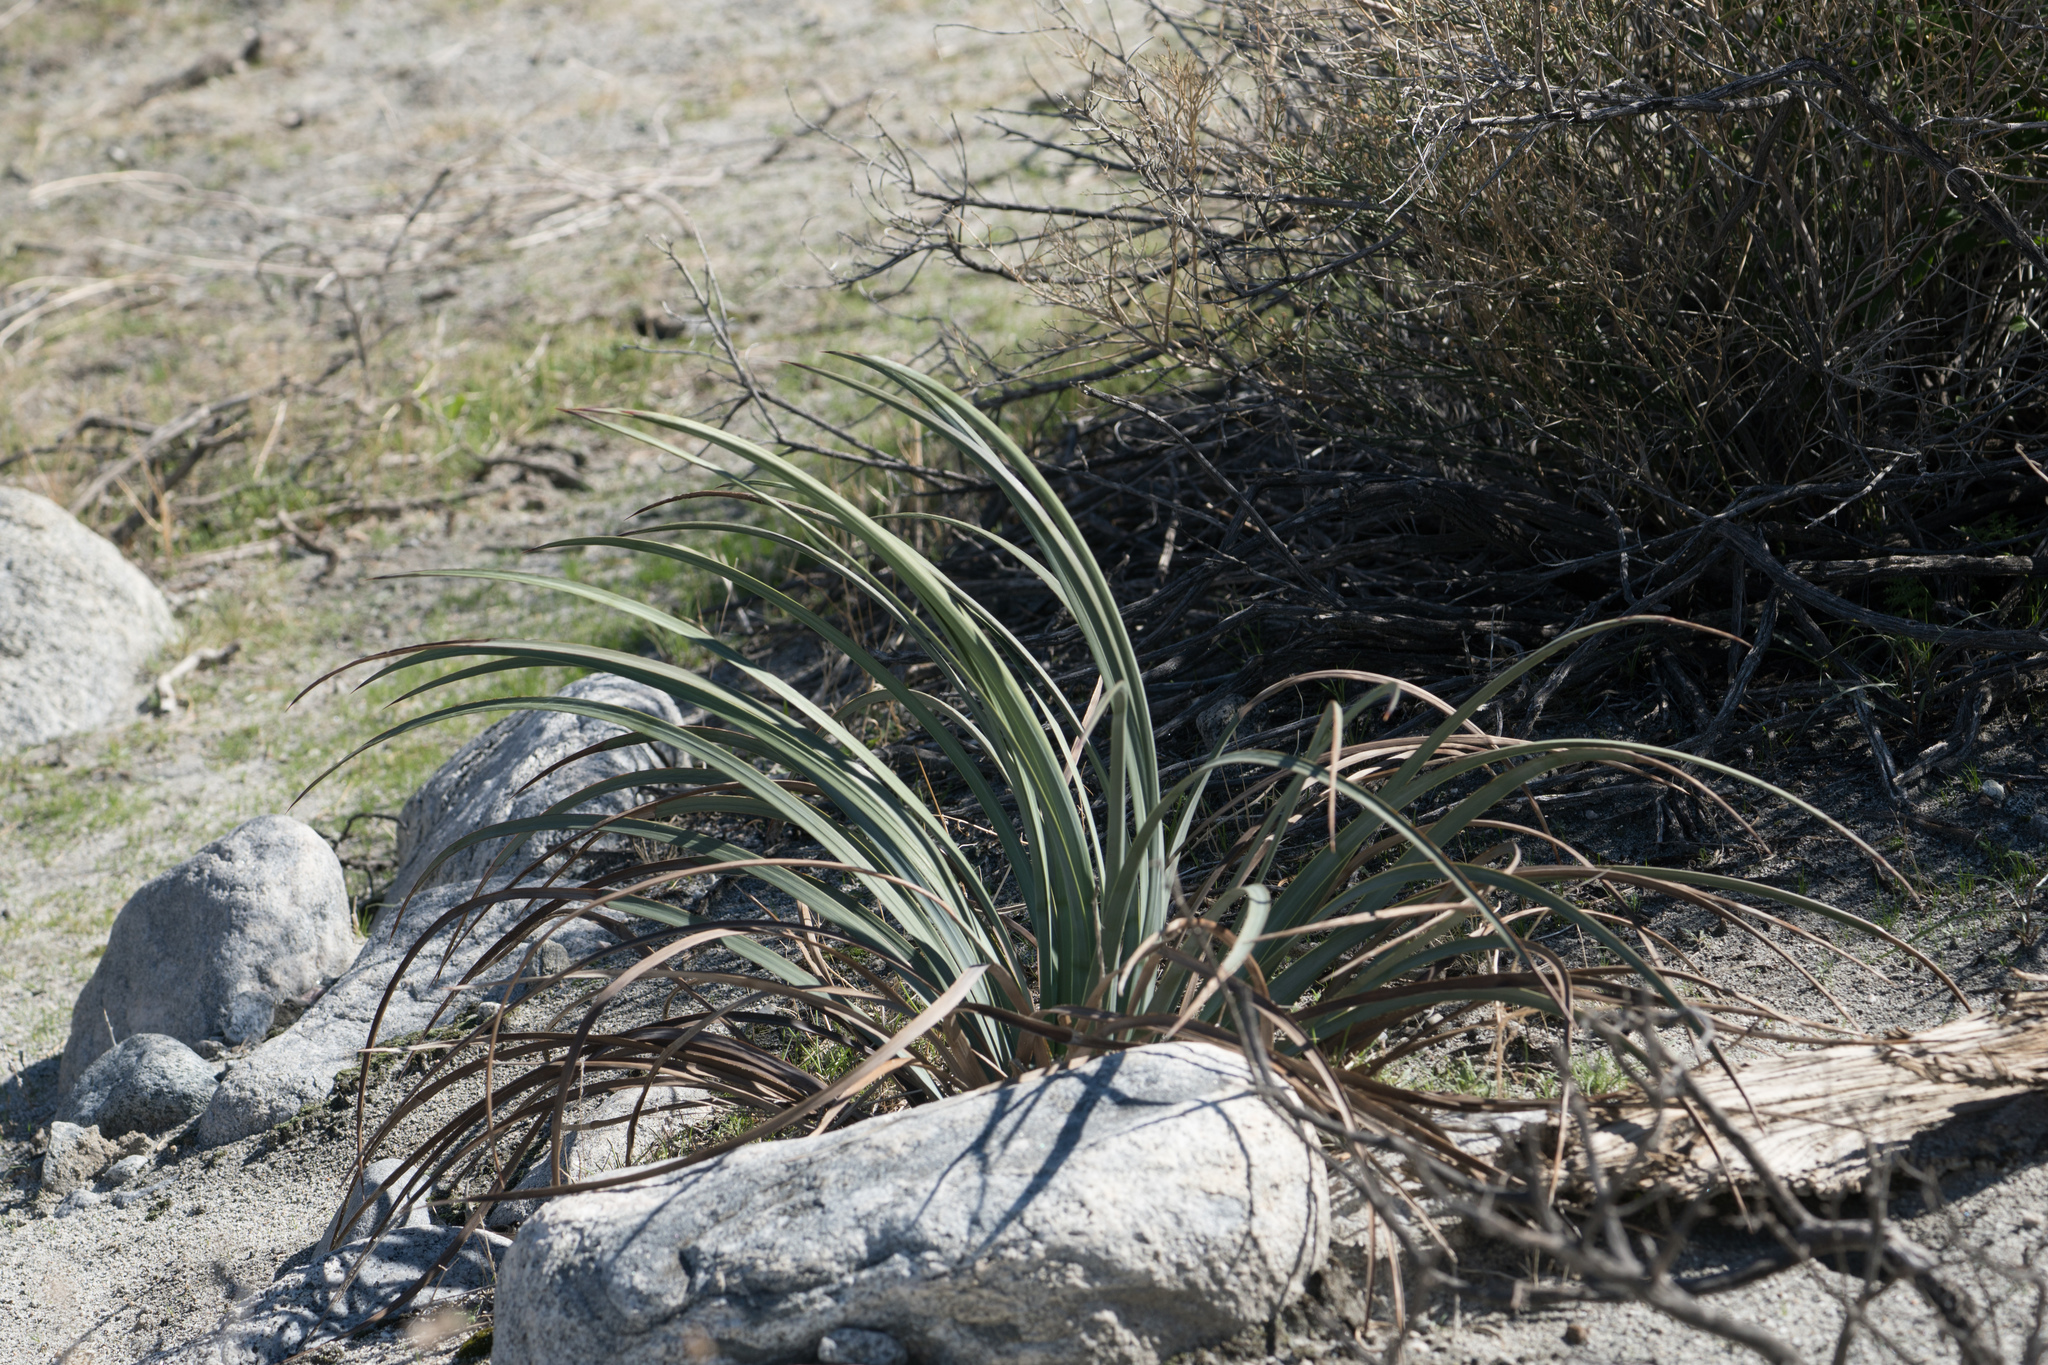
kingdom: Plantae
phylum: Tracheophyta
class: Liliopsida
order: Asparagales
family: Asparagaceae
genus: Hesperoyucca
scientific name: Hesperoyucca whipplei
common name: Our lord's-candle
